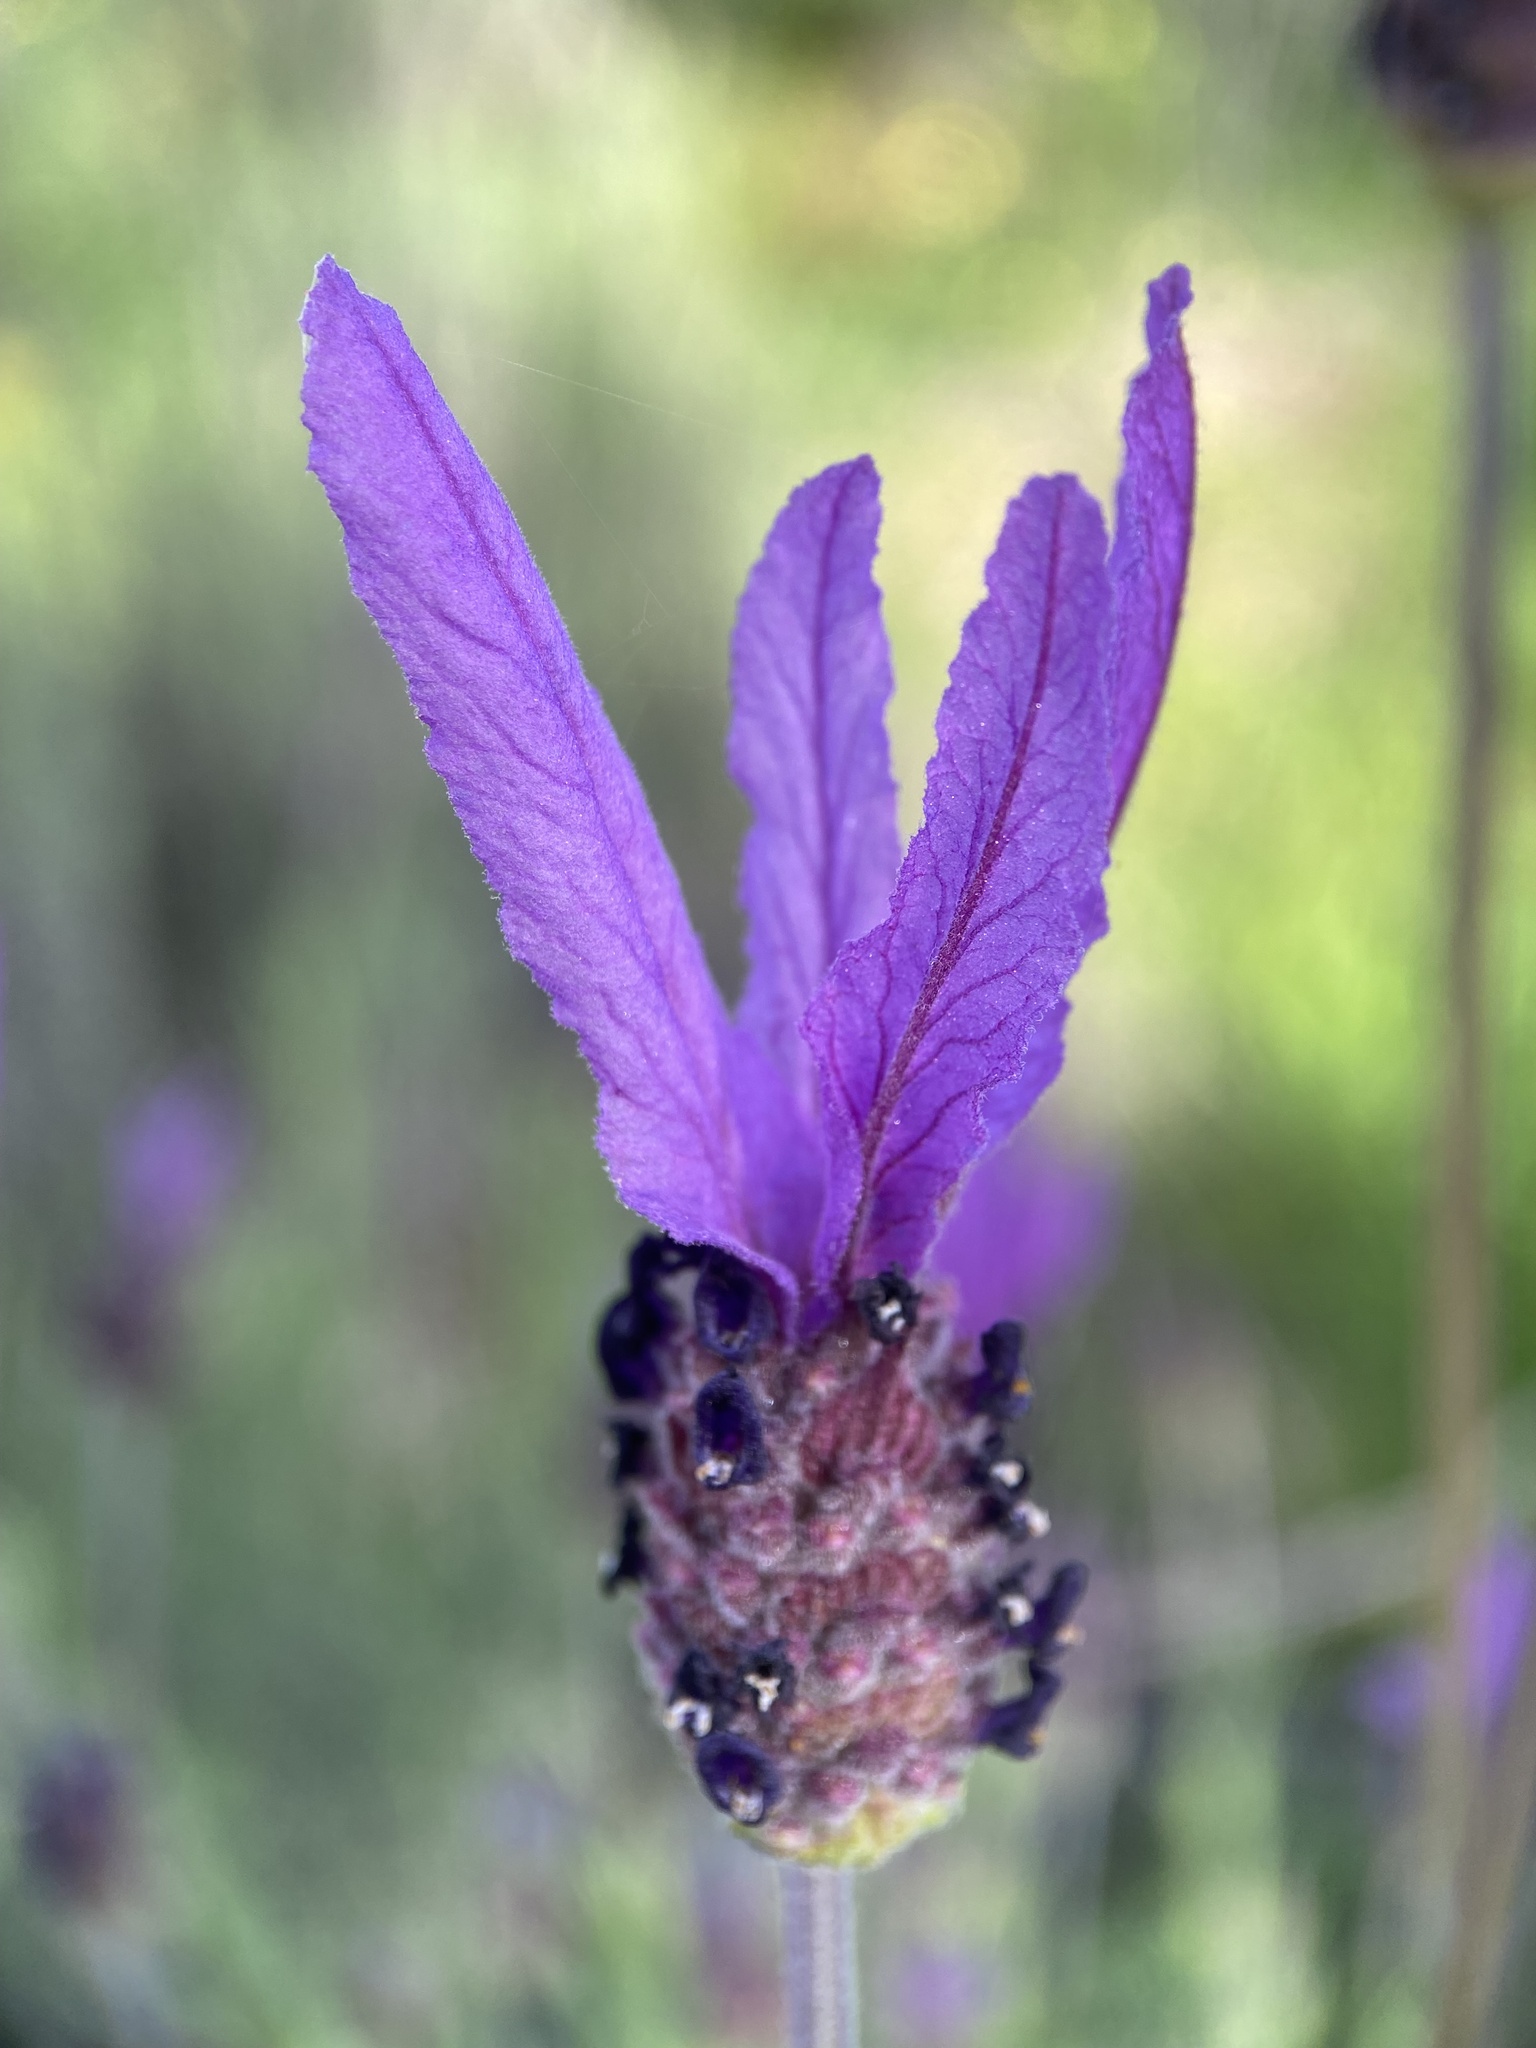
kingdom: Plantae
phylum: Tracheophyta
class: Magnoliopsida
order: Lamiales
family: Lamiaceae
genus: Lavandula
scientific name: Lavandula pedunculata
